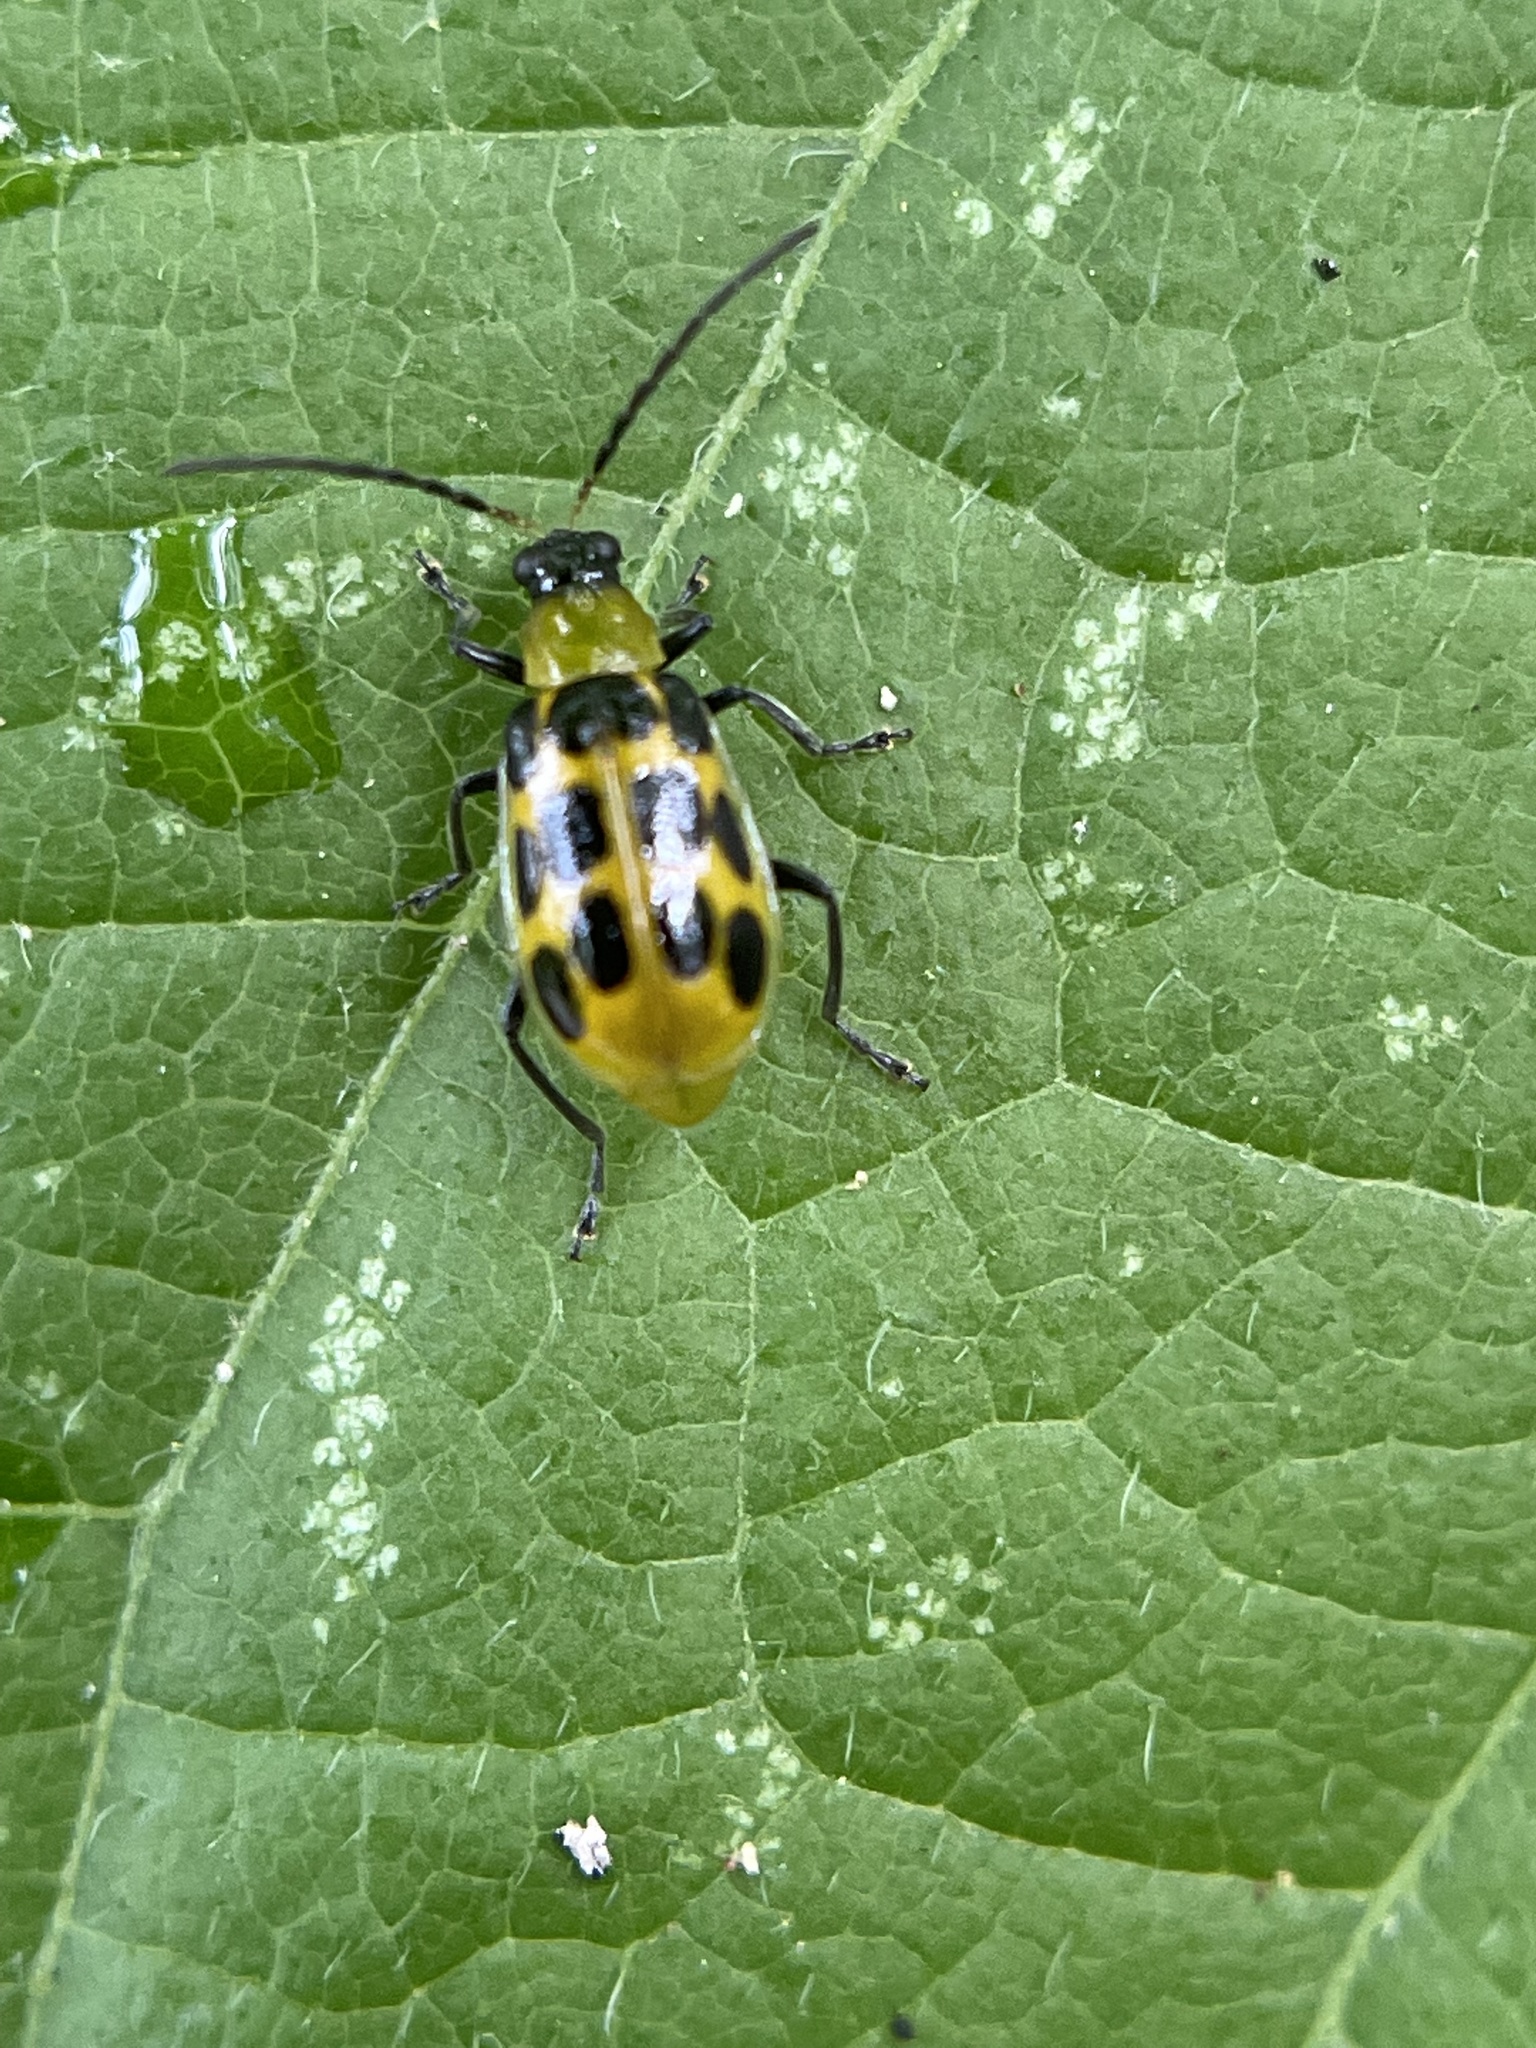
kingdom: Animalia
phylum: Arthropoda
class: Insecta
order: Coleoptera
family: Chrysomelidae
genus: Diabrotica
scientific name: Diabrotica undecimpunctata
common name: Spotted cucumber beetle
